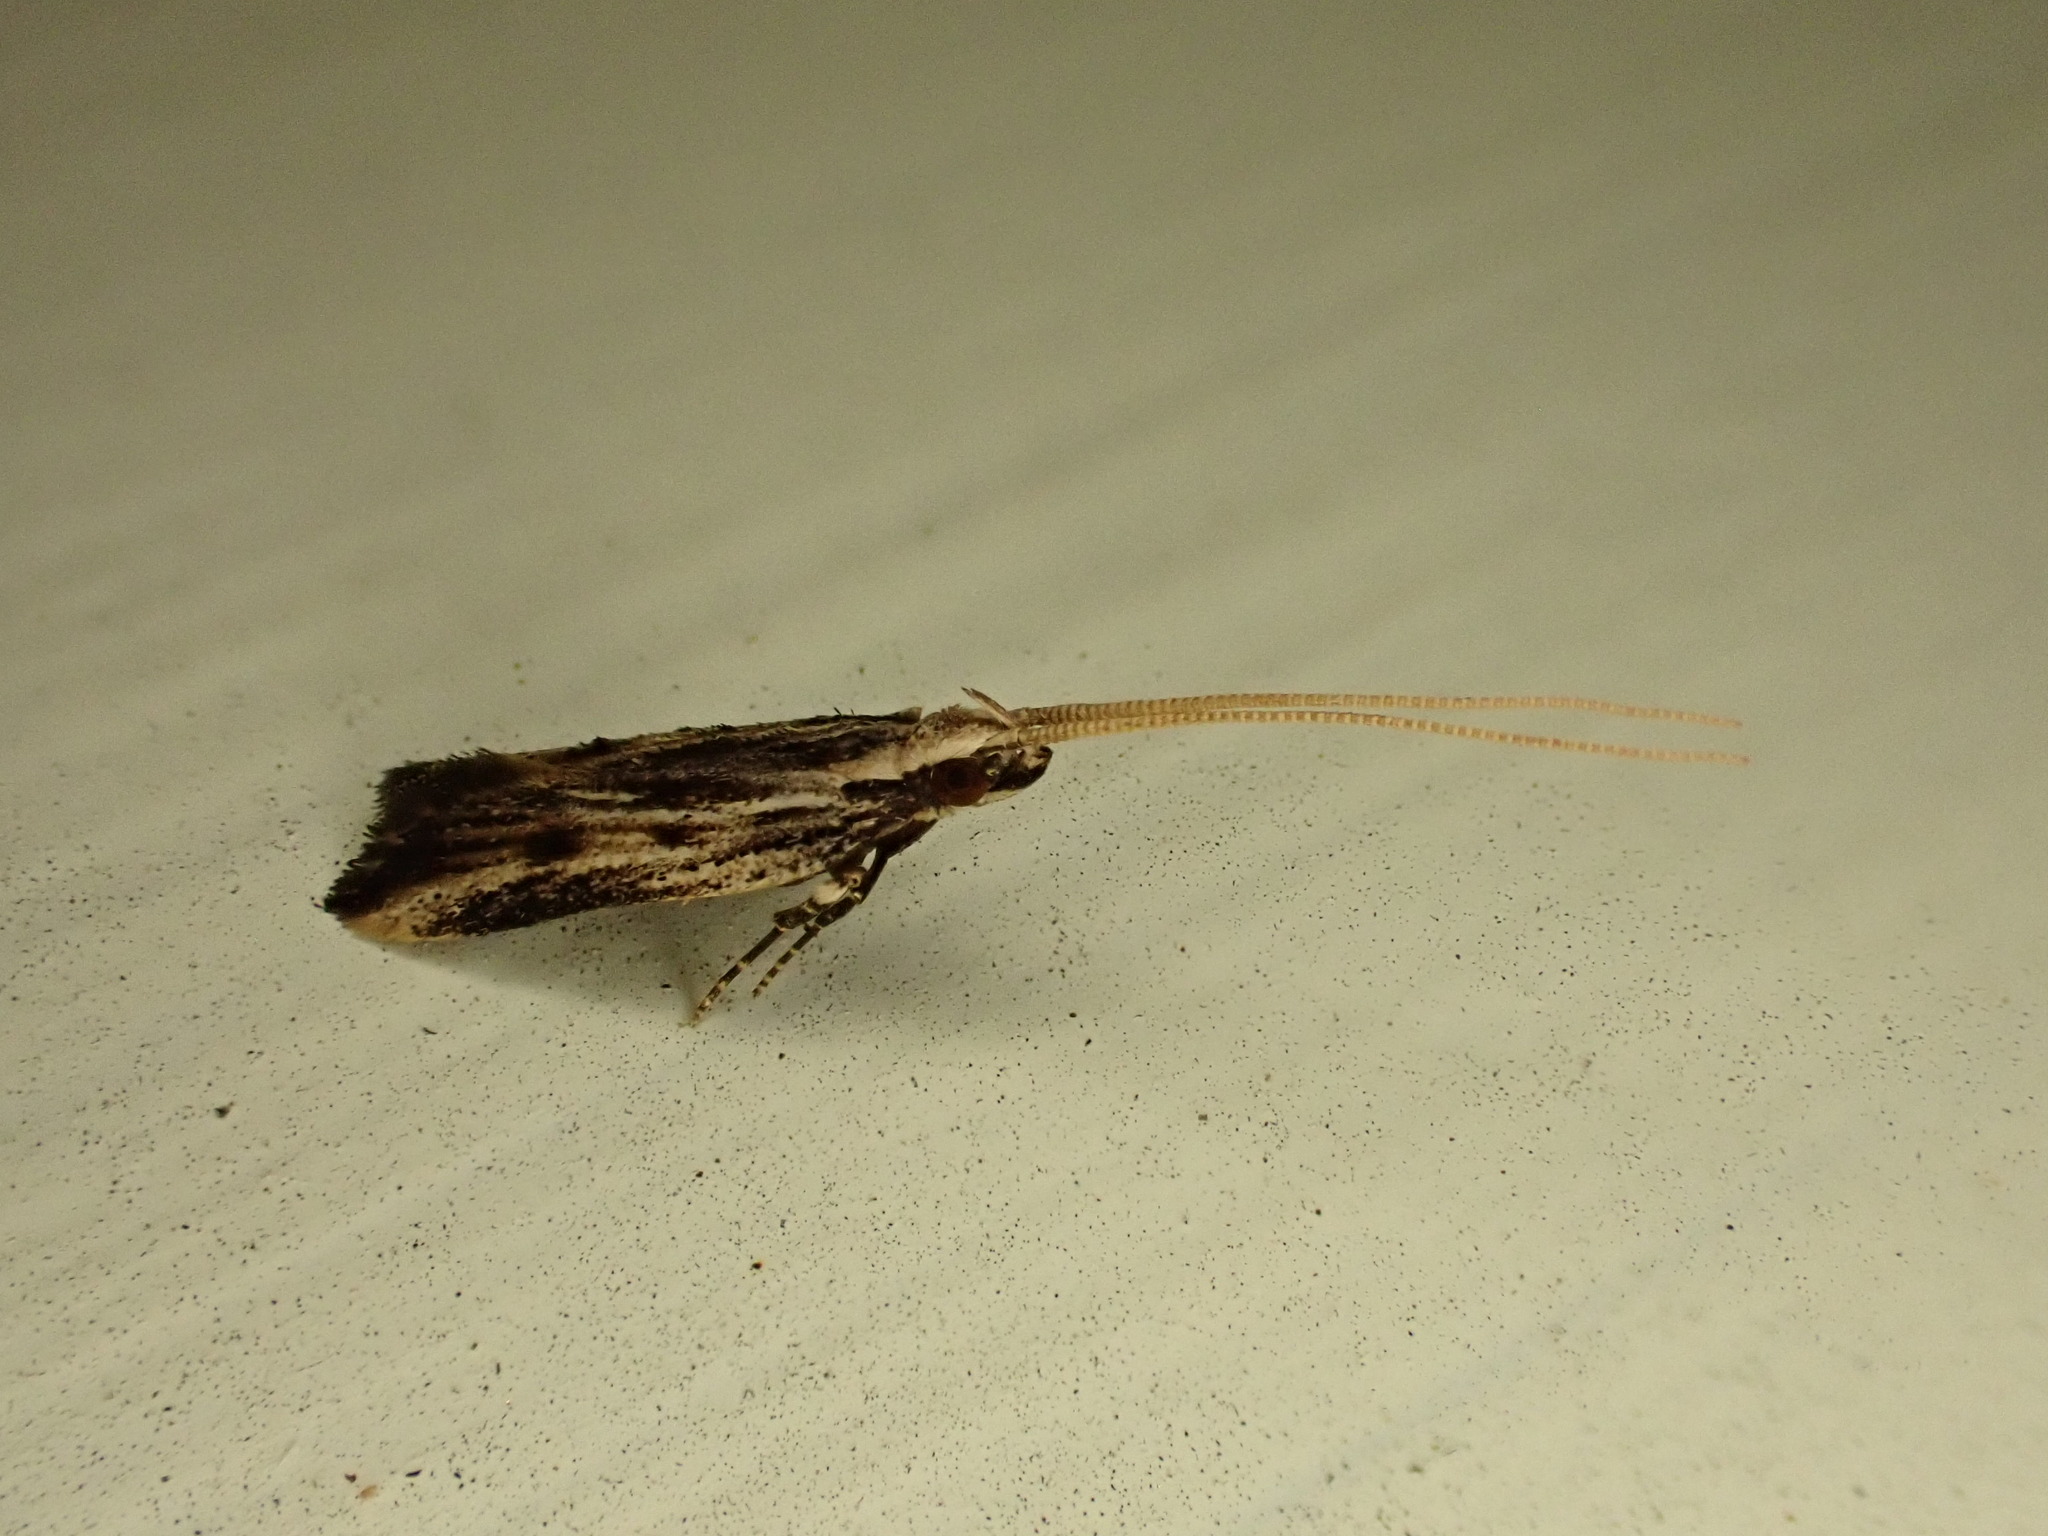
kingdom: Animalia
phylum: Arthropoda
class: Insecta
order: Lepidoptera
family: Lecithoceridae
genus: Sarisophora
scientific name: Sarisophora leucoscia
